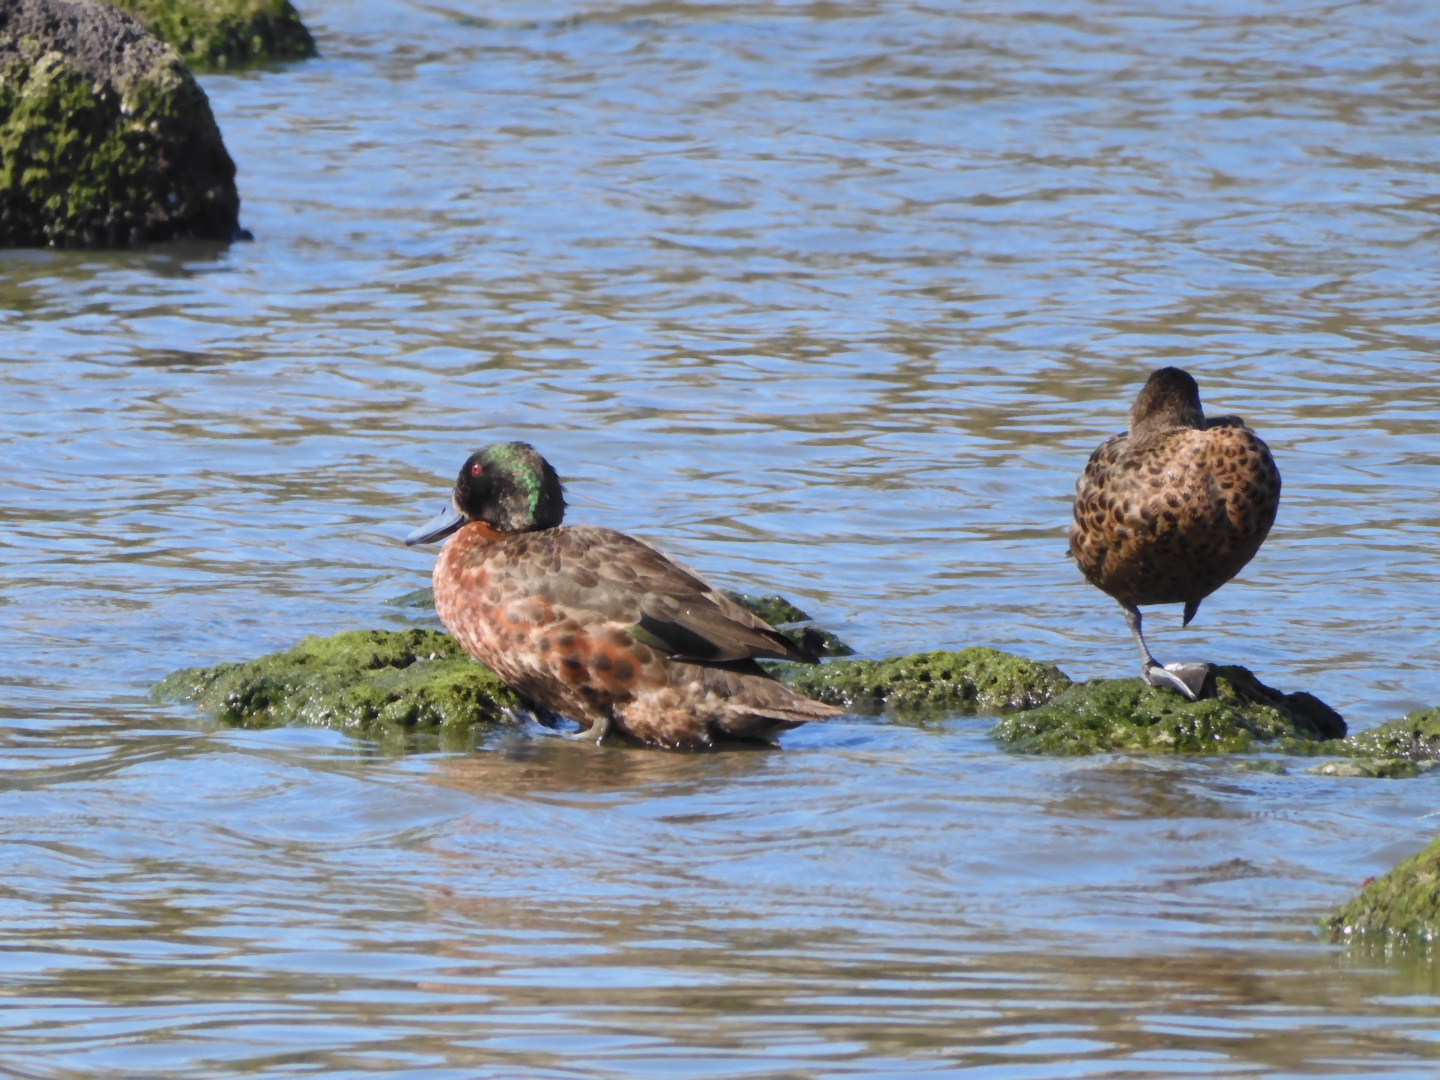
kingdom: Animalia
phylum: Chordata
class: Aves
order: Anseriformes
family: Anatidae
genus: Anas
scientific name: Anas castanea
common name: Chestnut teal
